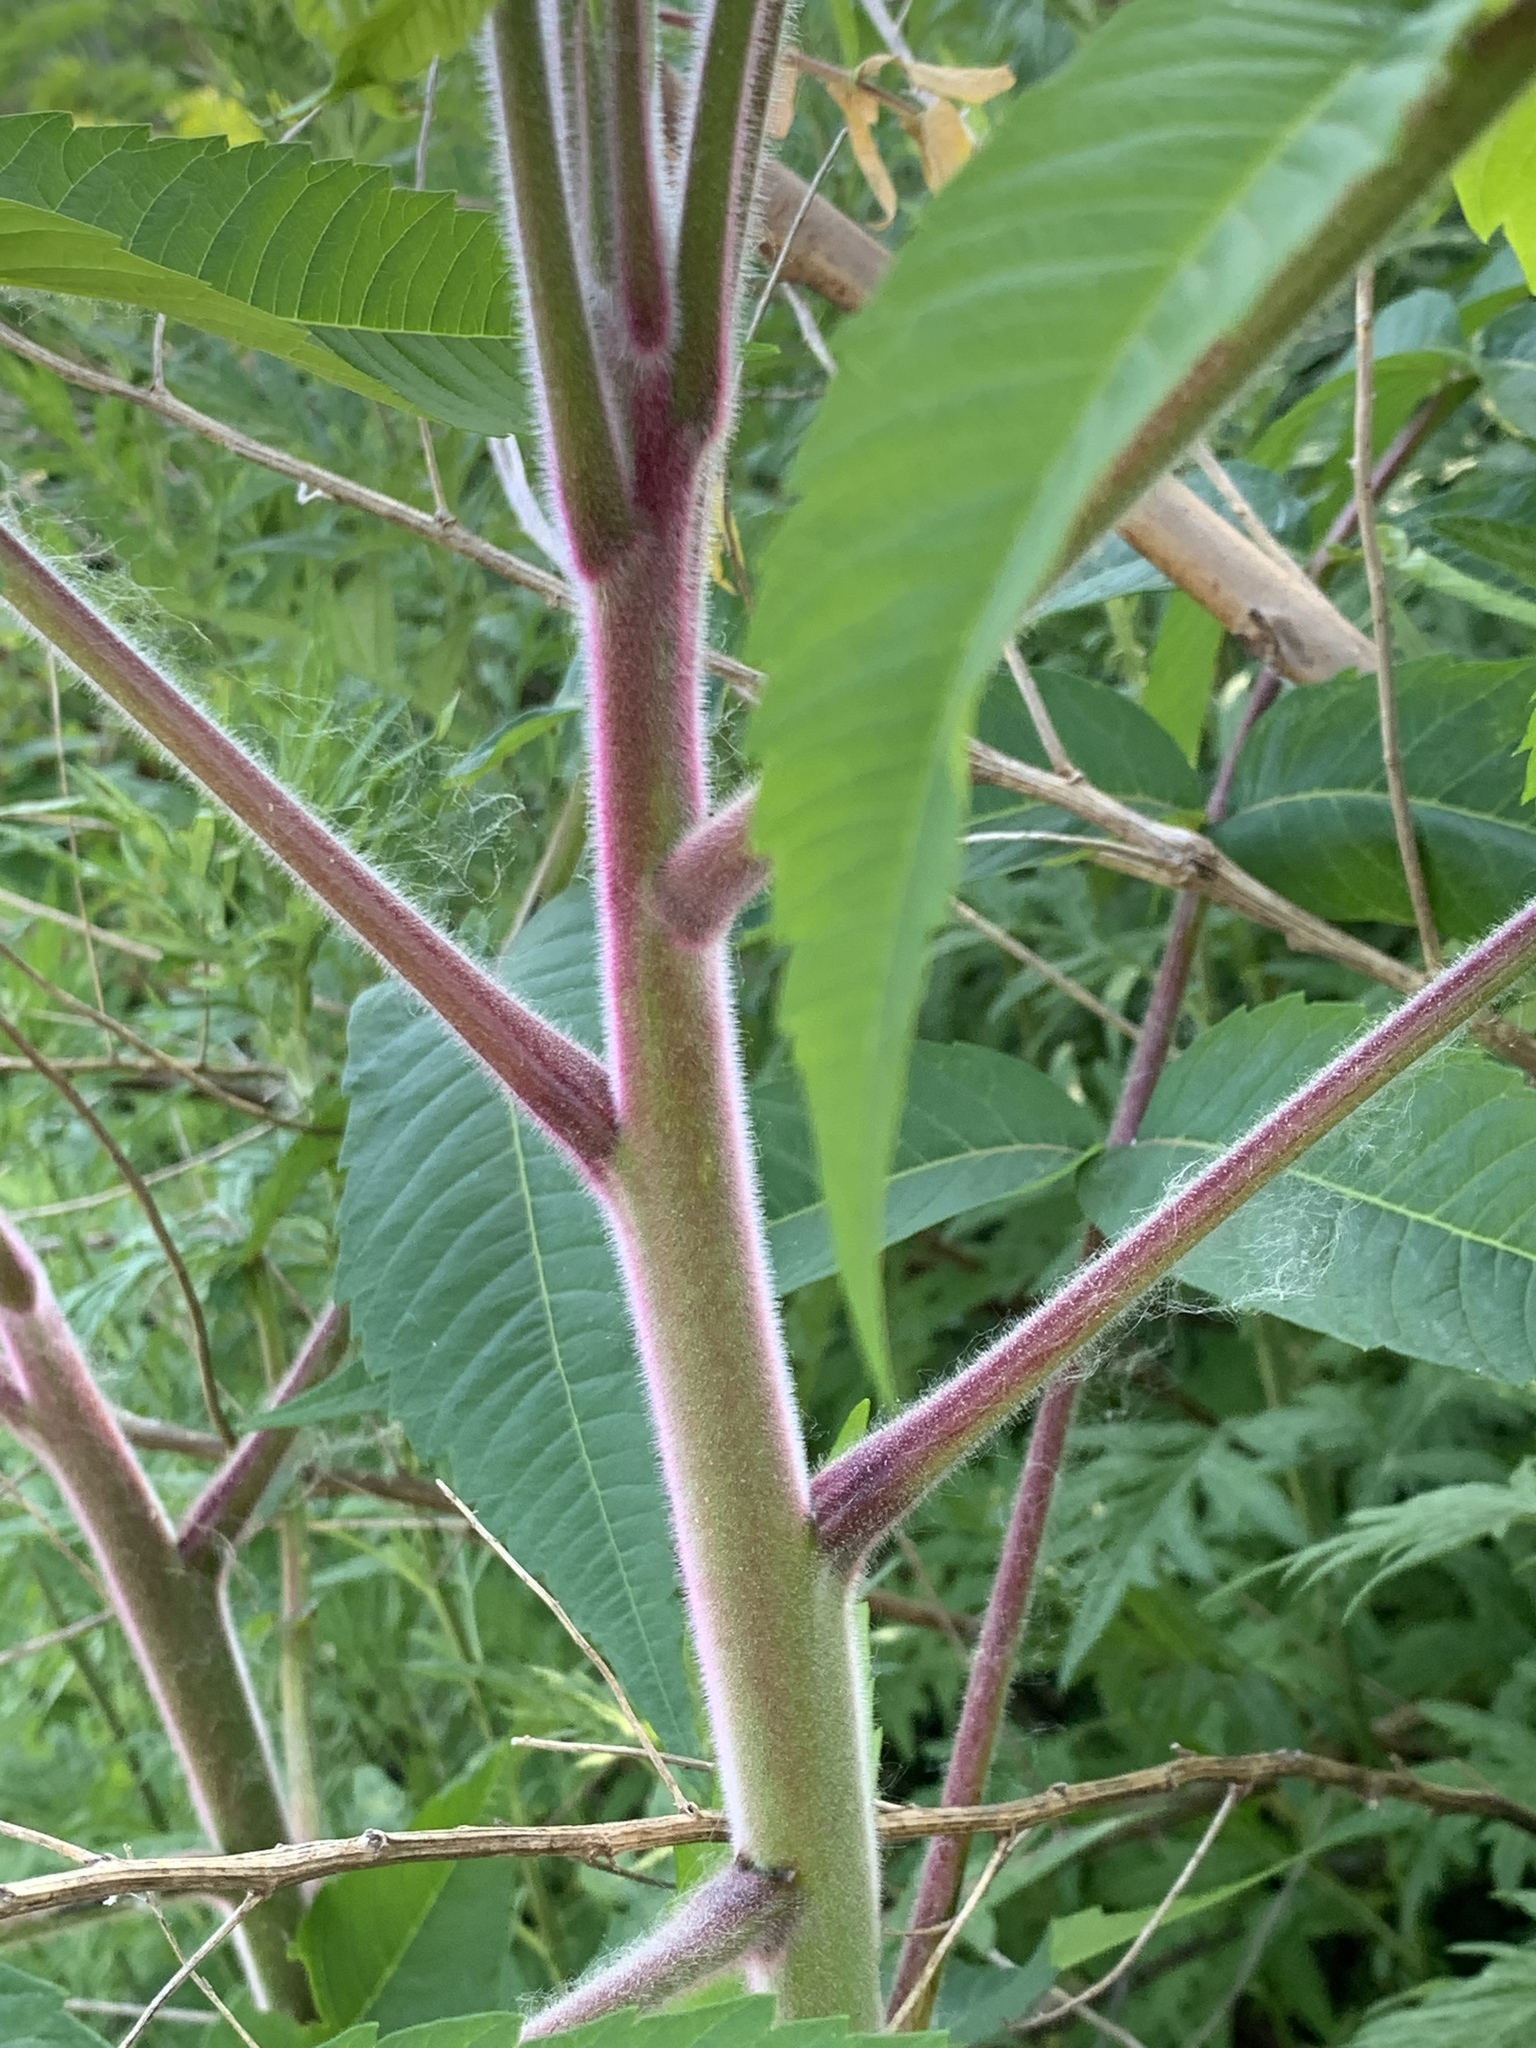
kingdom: Plantae
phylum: Tracheophyta
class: Magnoliopsida
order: Sapindales
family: Anacardiaceae
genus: Rhus
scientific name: Rhus typhina
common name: Staghorn sumac
